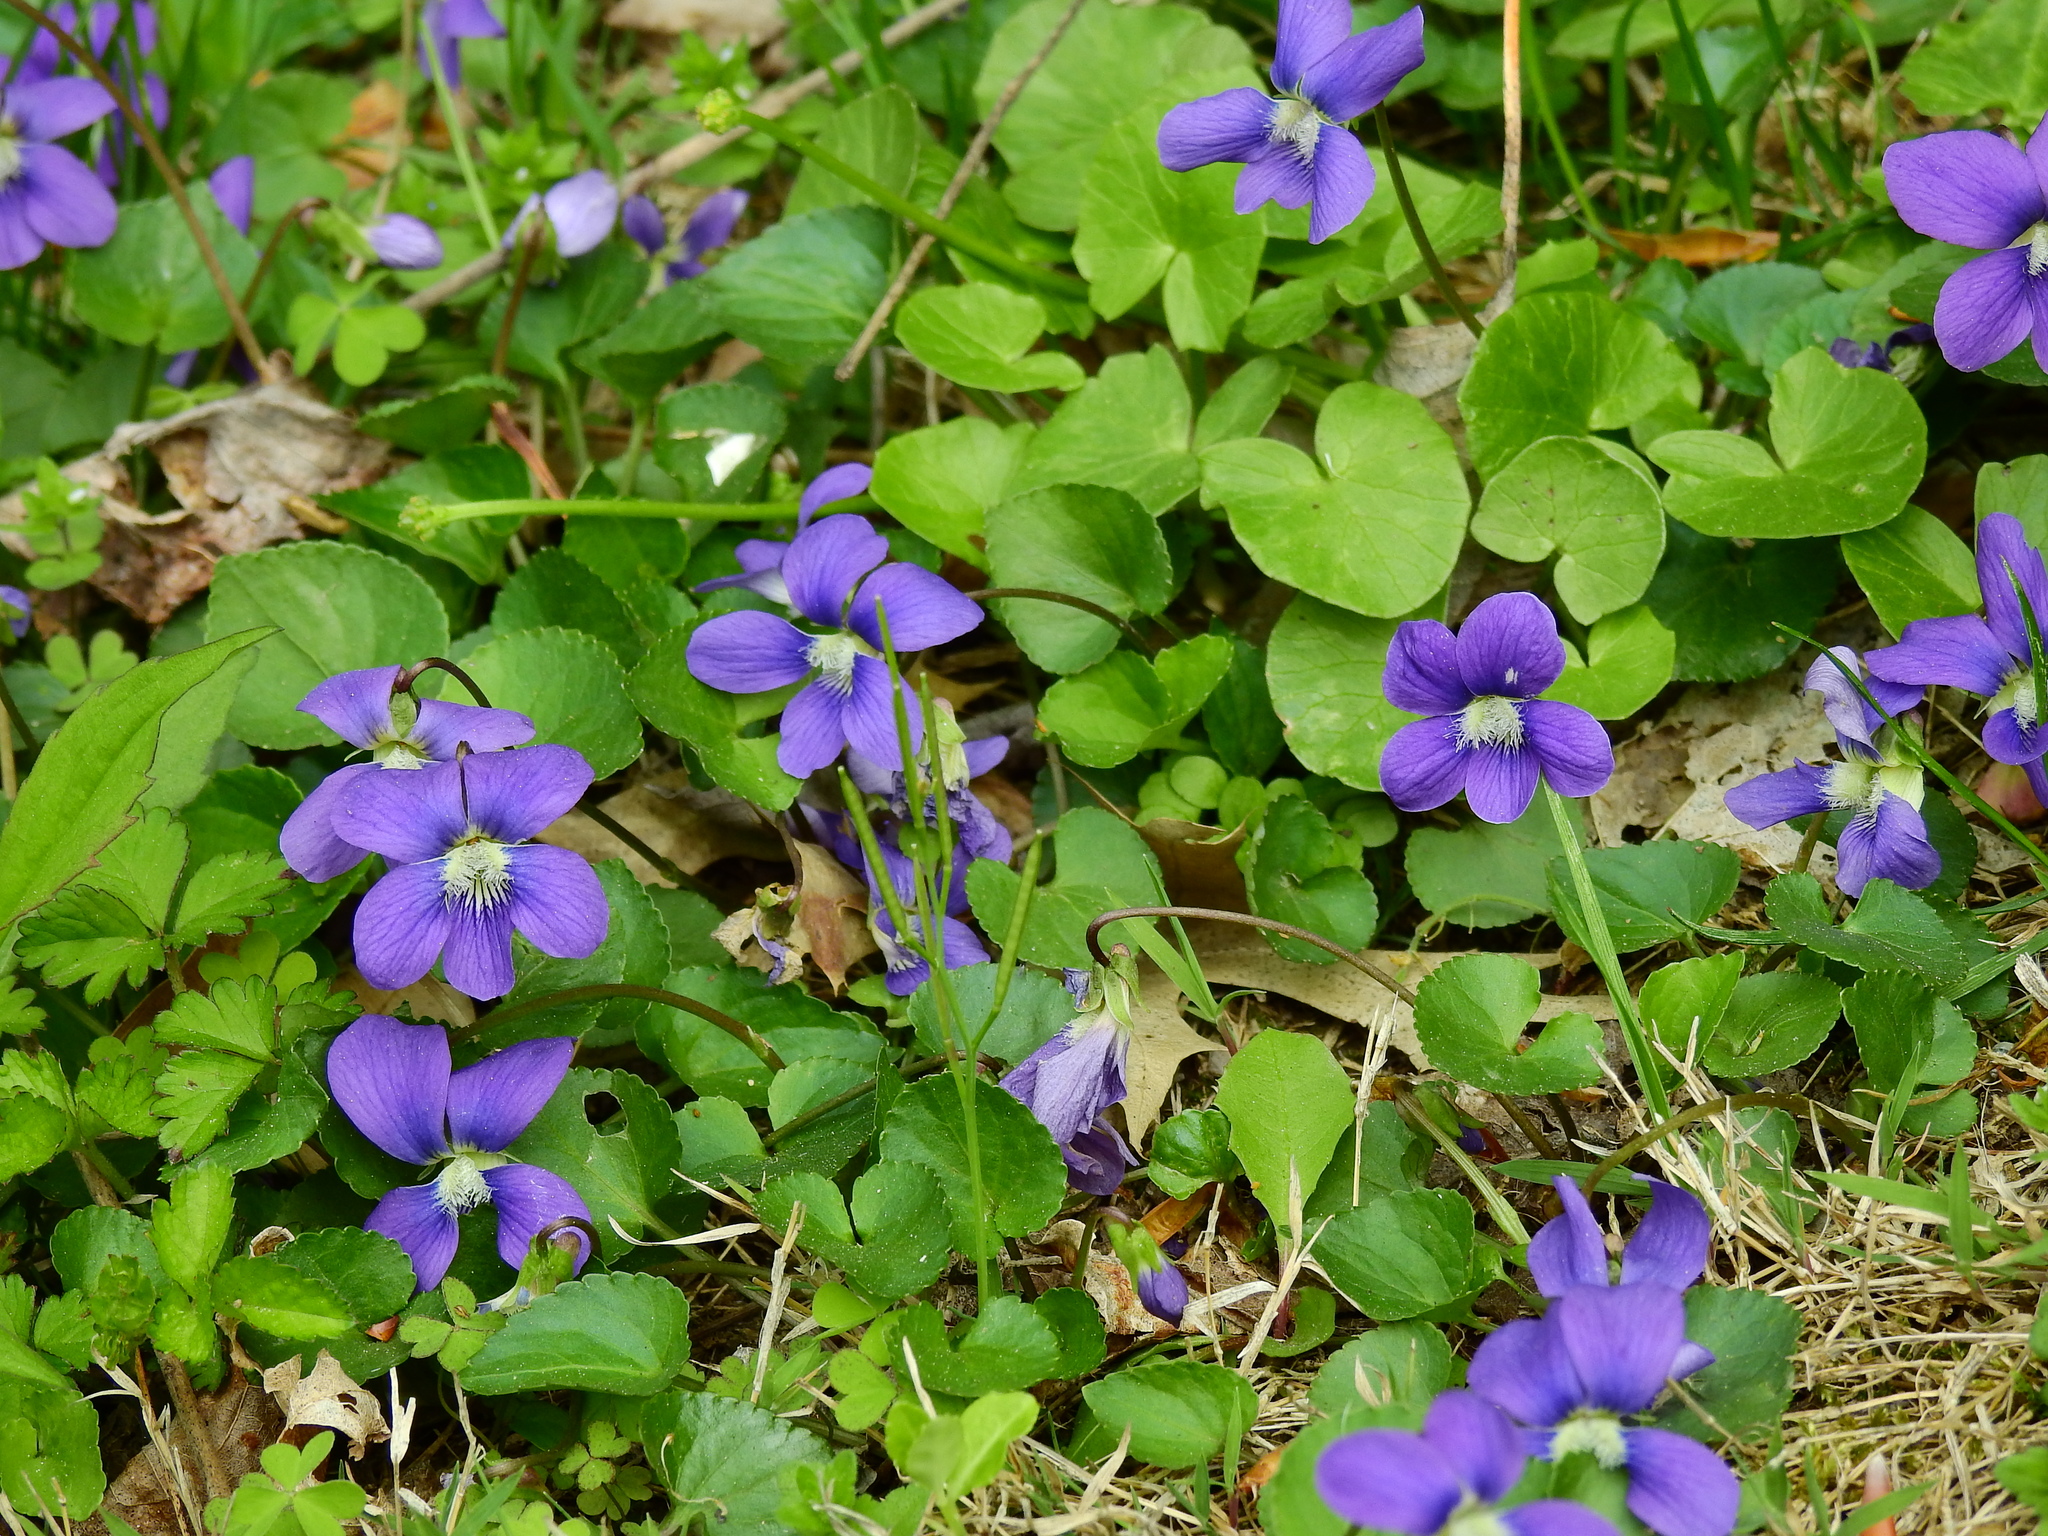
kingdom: Plantae
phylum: Tracheophyta
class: Magnoliopsida
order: Malpighiales
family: Violaceae
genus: Viola
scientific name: Viola sororia
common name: Dooryard violet
